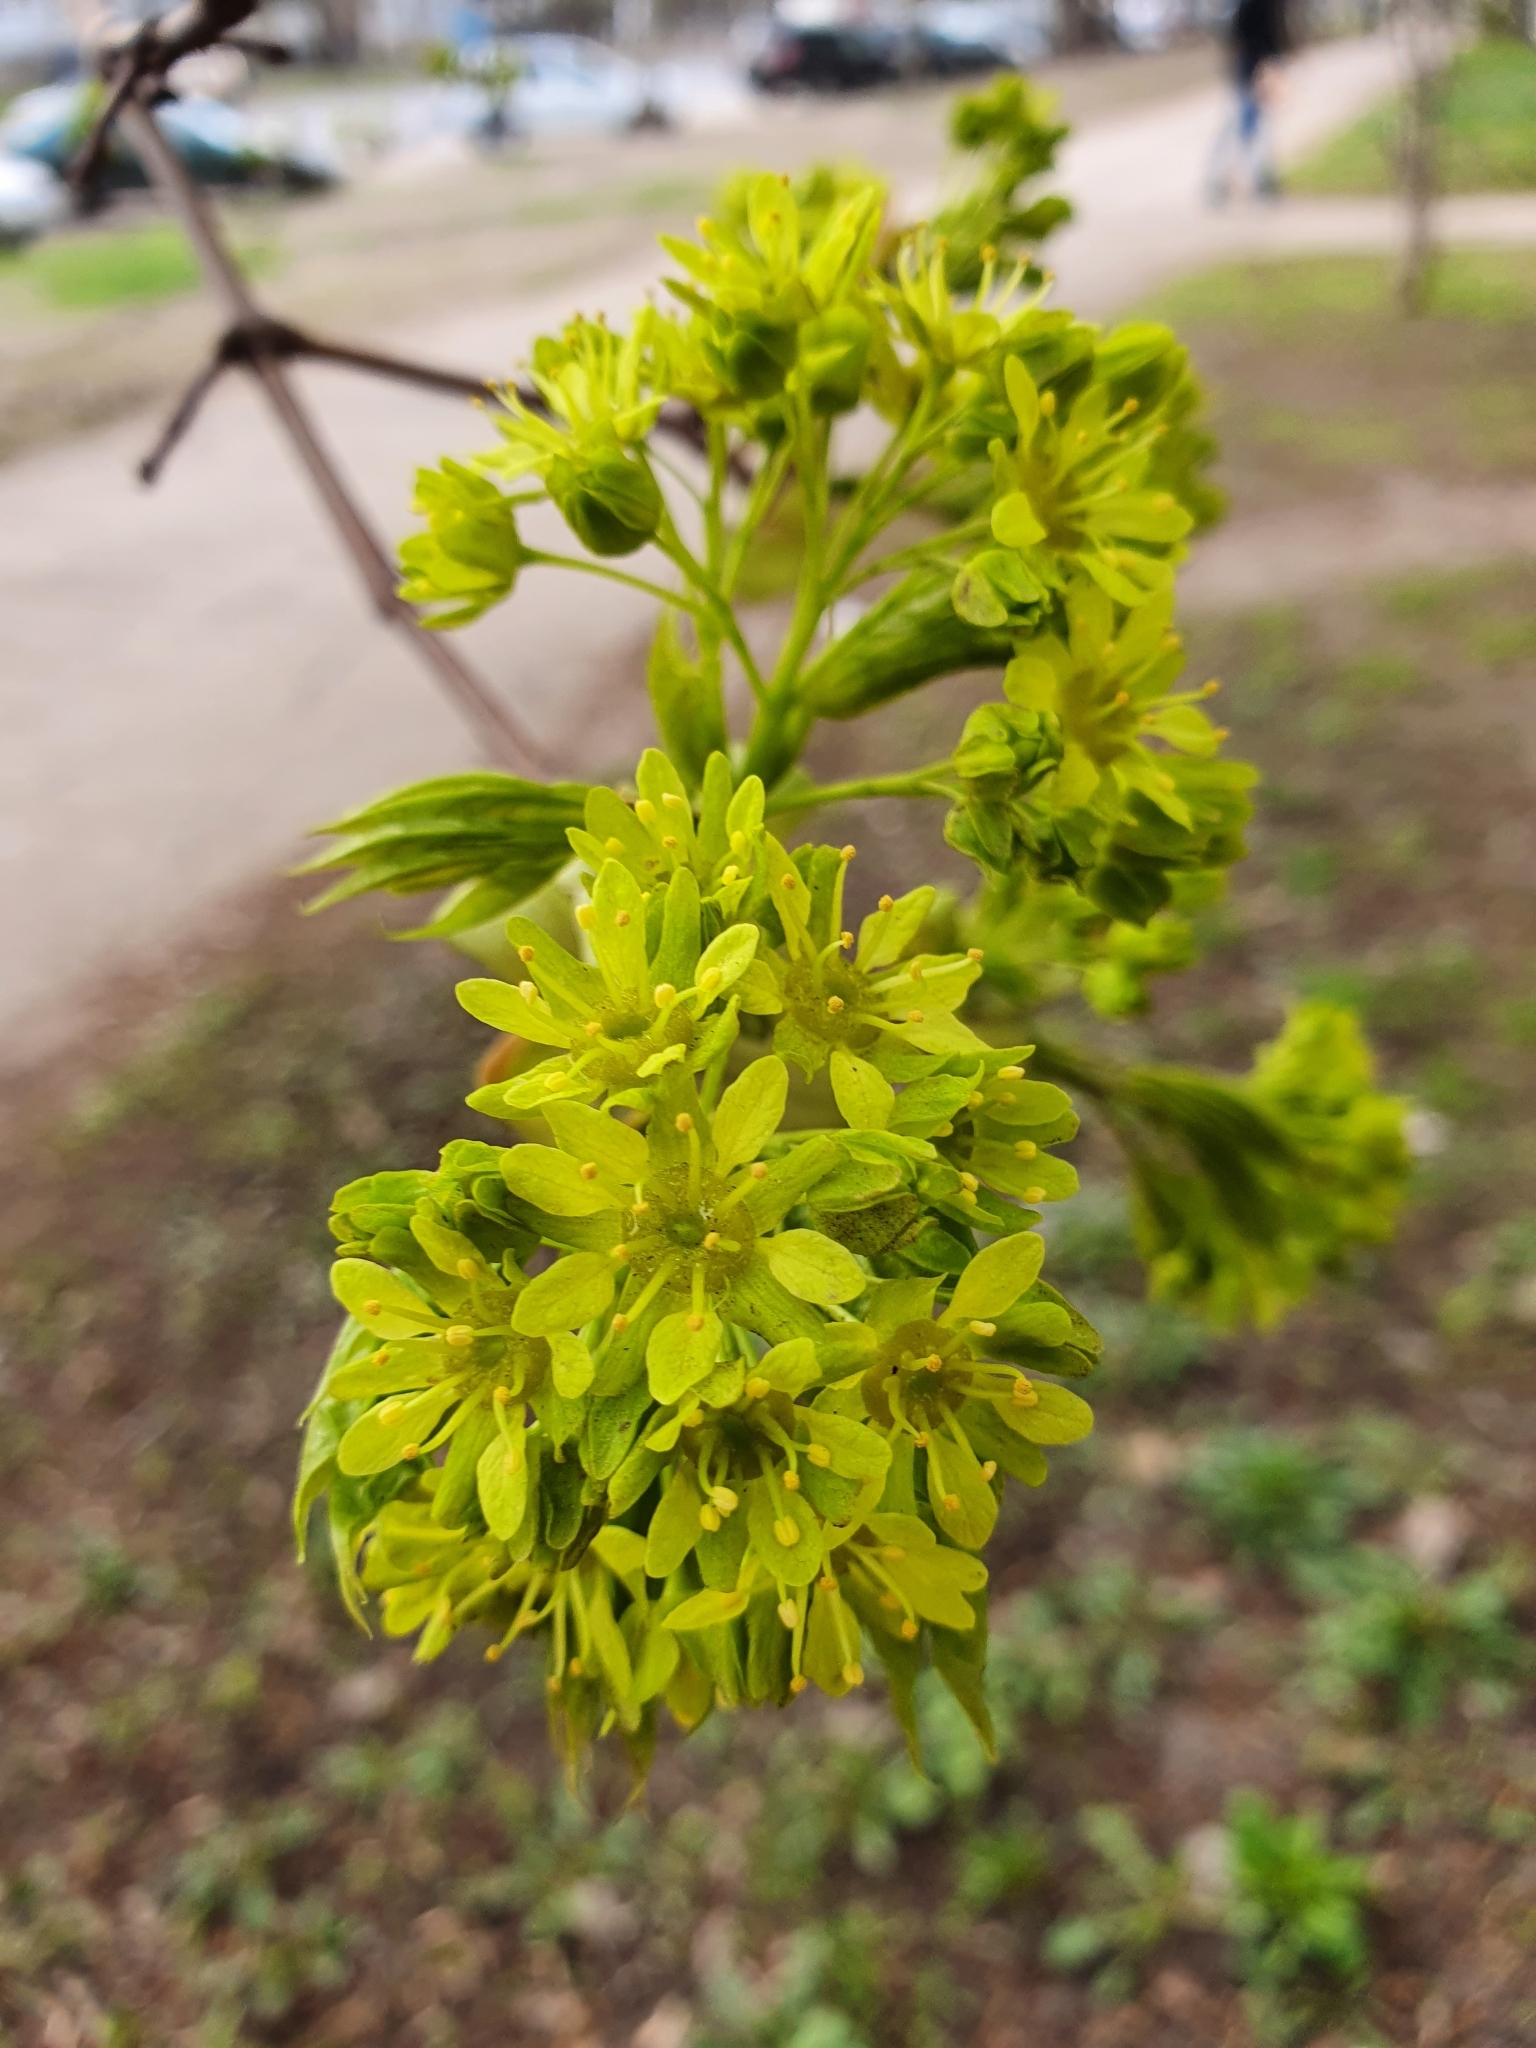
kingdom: Plantae
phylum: Tracheophyta
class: Magnoliopsida
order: Sapindales
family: Sapindaceae
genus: Acer
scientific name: Acer platanoides
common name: Norway maple
